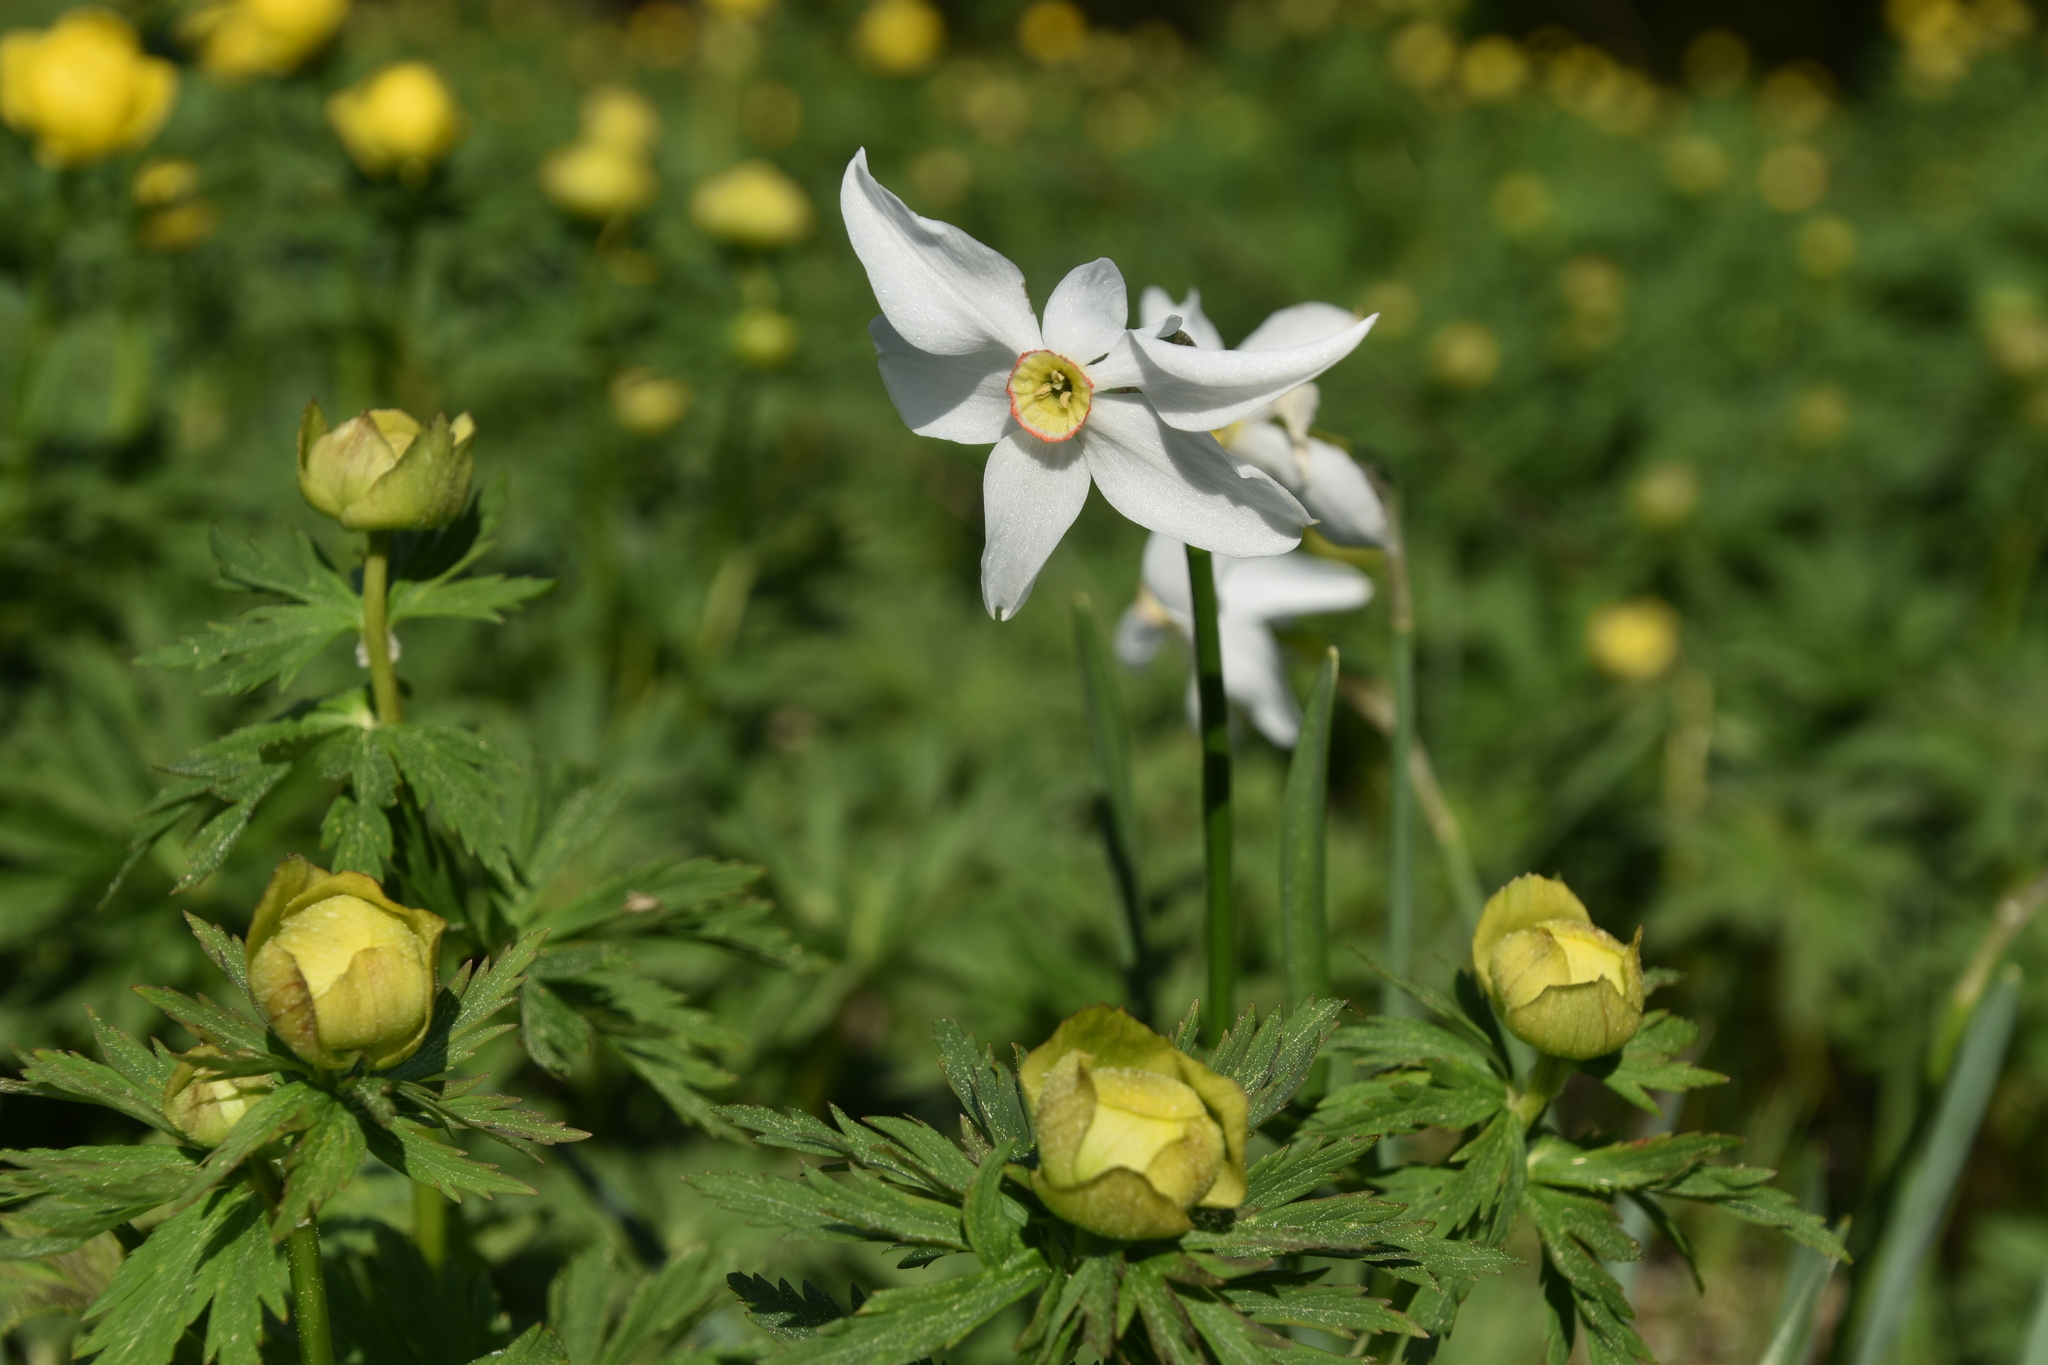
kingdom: Plantae
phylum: Tracheophyta
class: Liliopsida
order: Asparagales
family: Amaryllidaceae
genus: Narcissus
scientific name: Narcissus poeticus
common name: Pheasant's-eye daffodil
